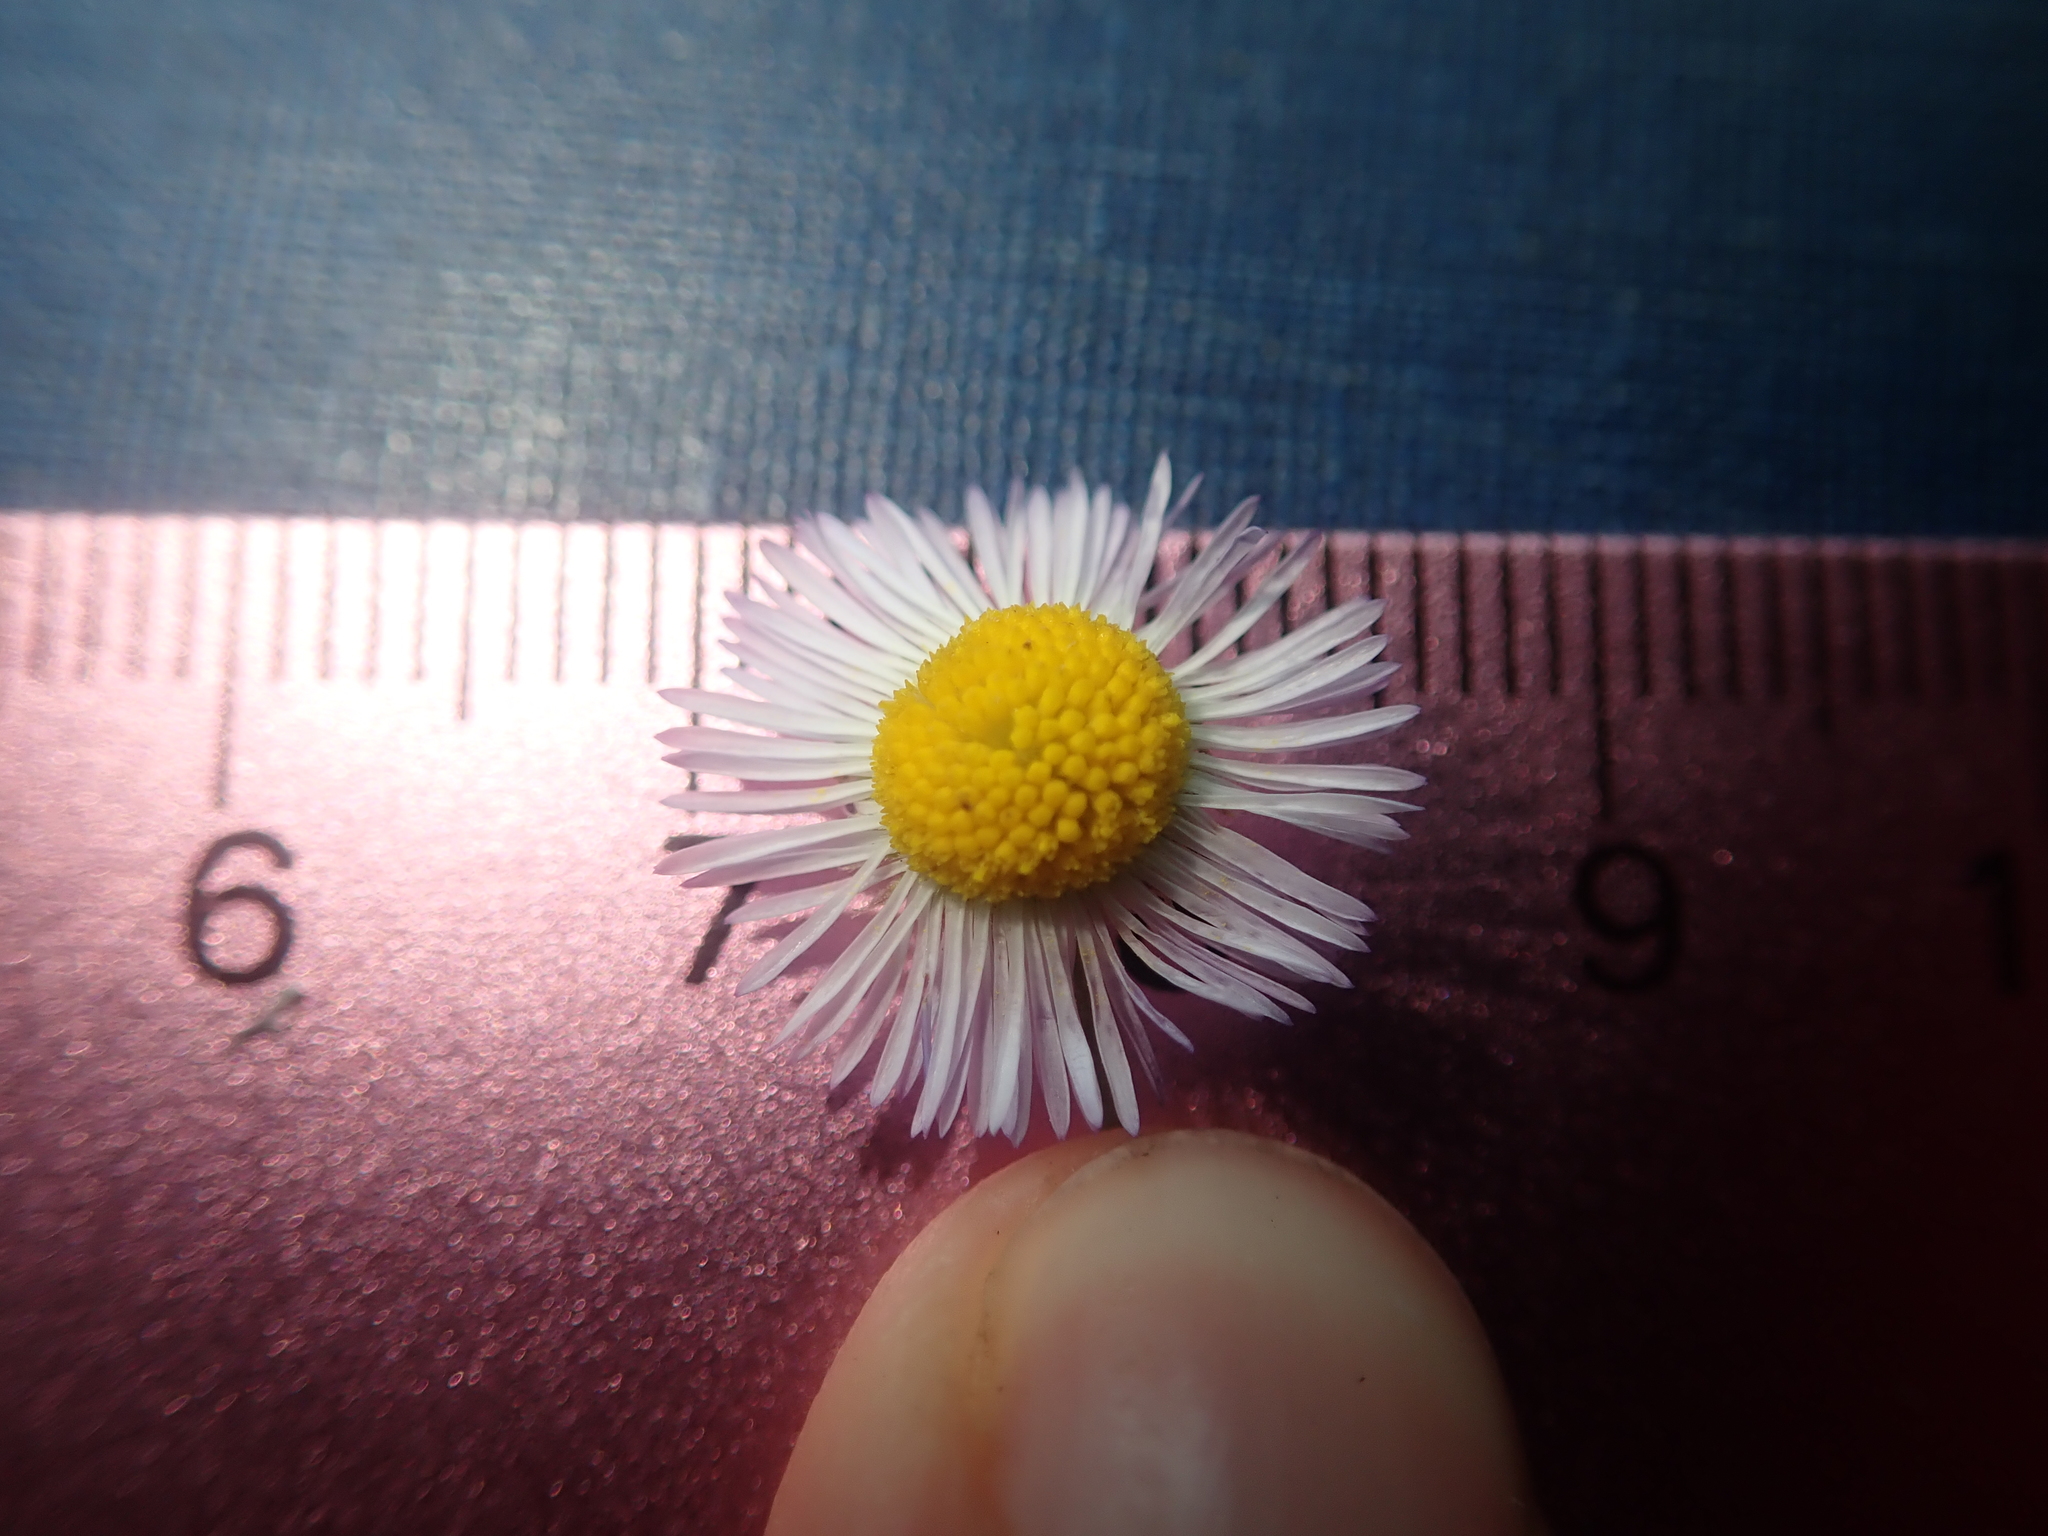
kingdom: Plantae
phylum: Tracheophyta
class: Magnoliopsida
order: Asterales
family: Asteraceae
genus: Erigeron
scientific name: Erigeron divergens
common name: Diffuse fleabane
